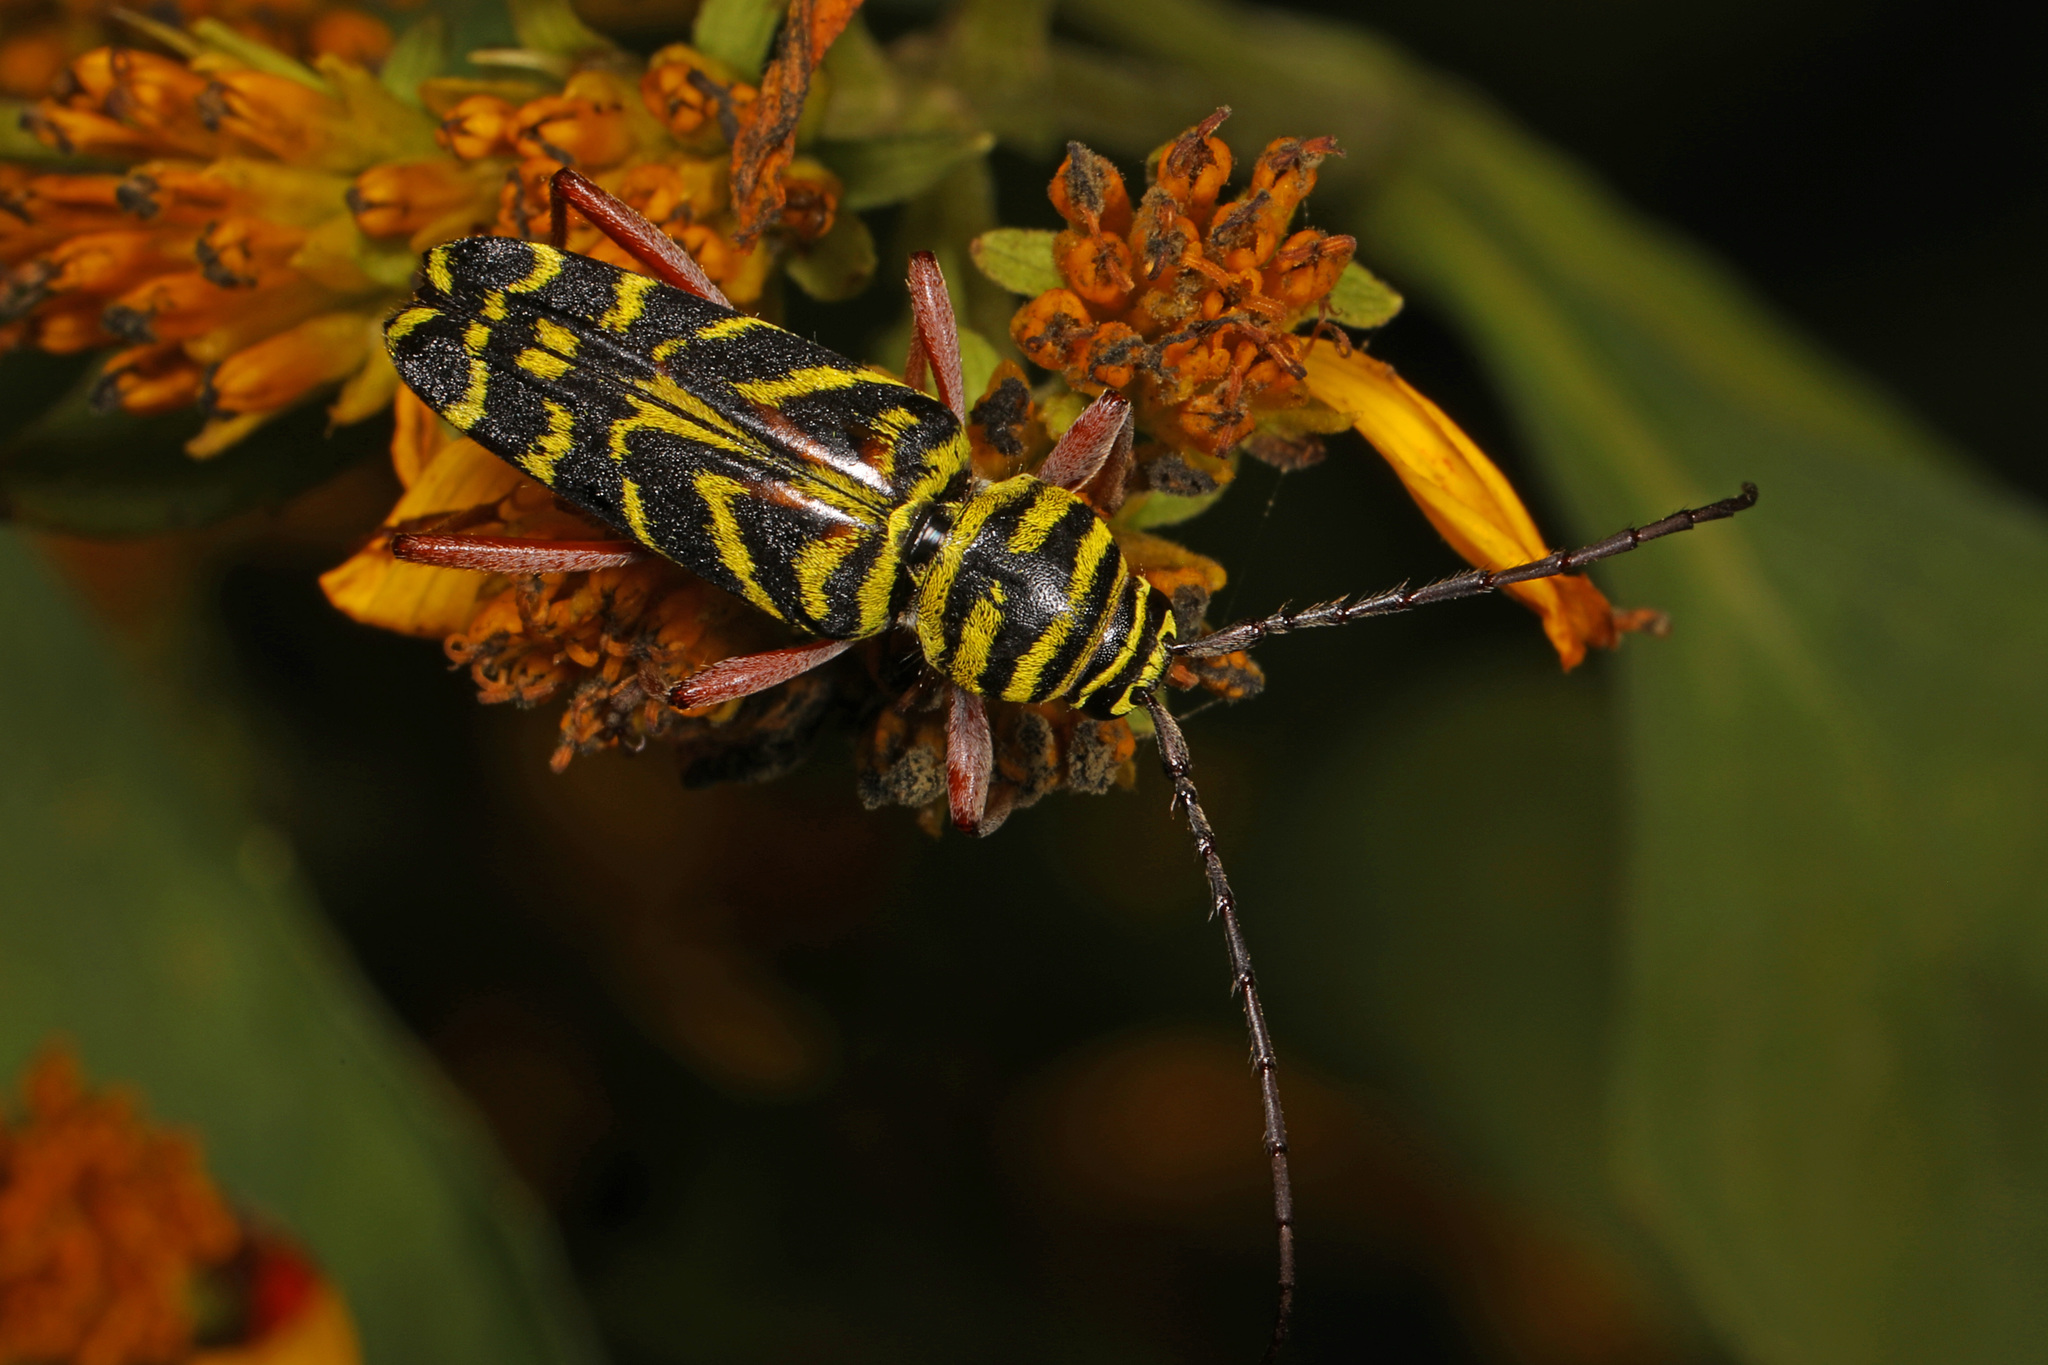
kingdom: Animalia
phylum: Arthropoda
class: Insecta
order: Coleoptera
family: Cerambycidae
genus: Megacyllene
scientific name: Megacyllene robiniae
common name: Locust borer
